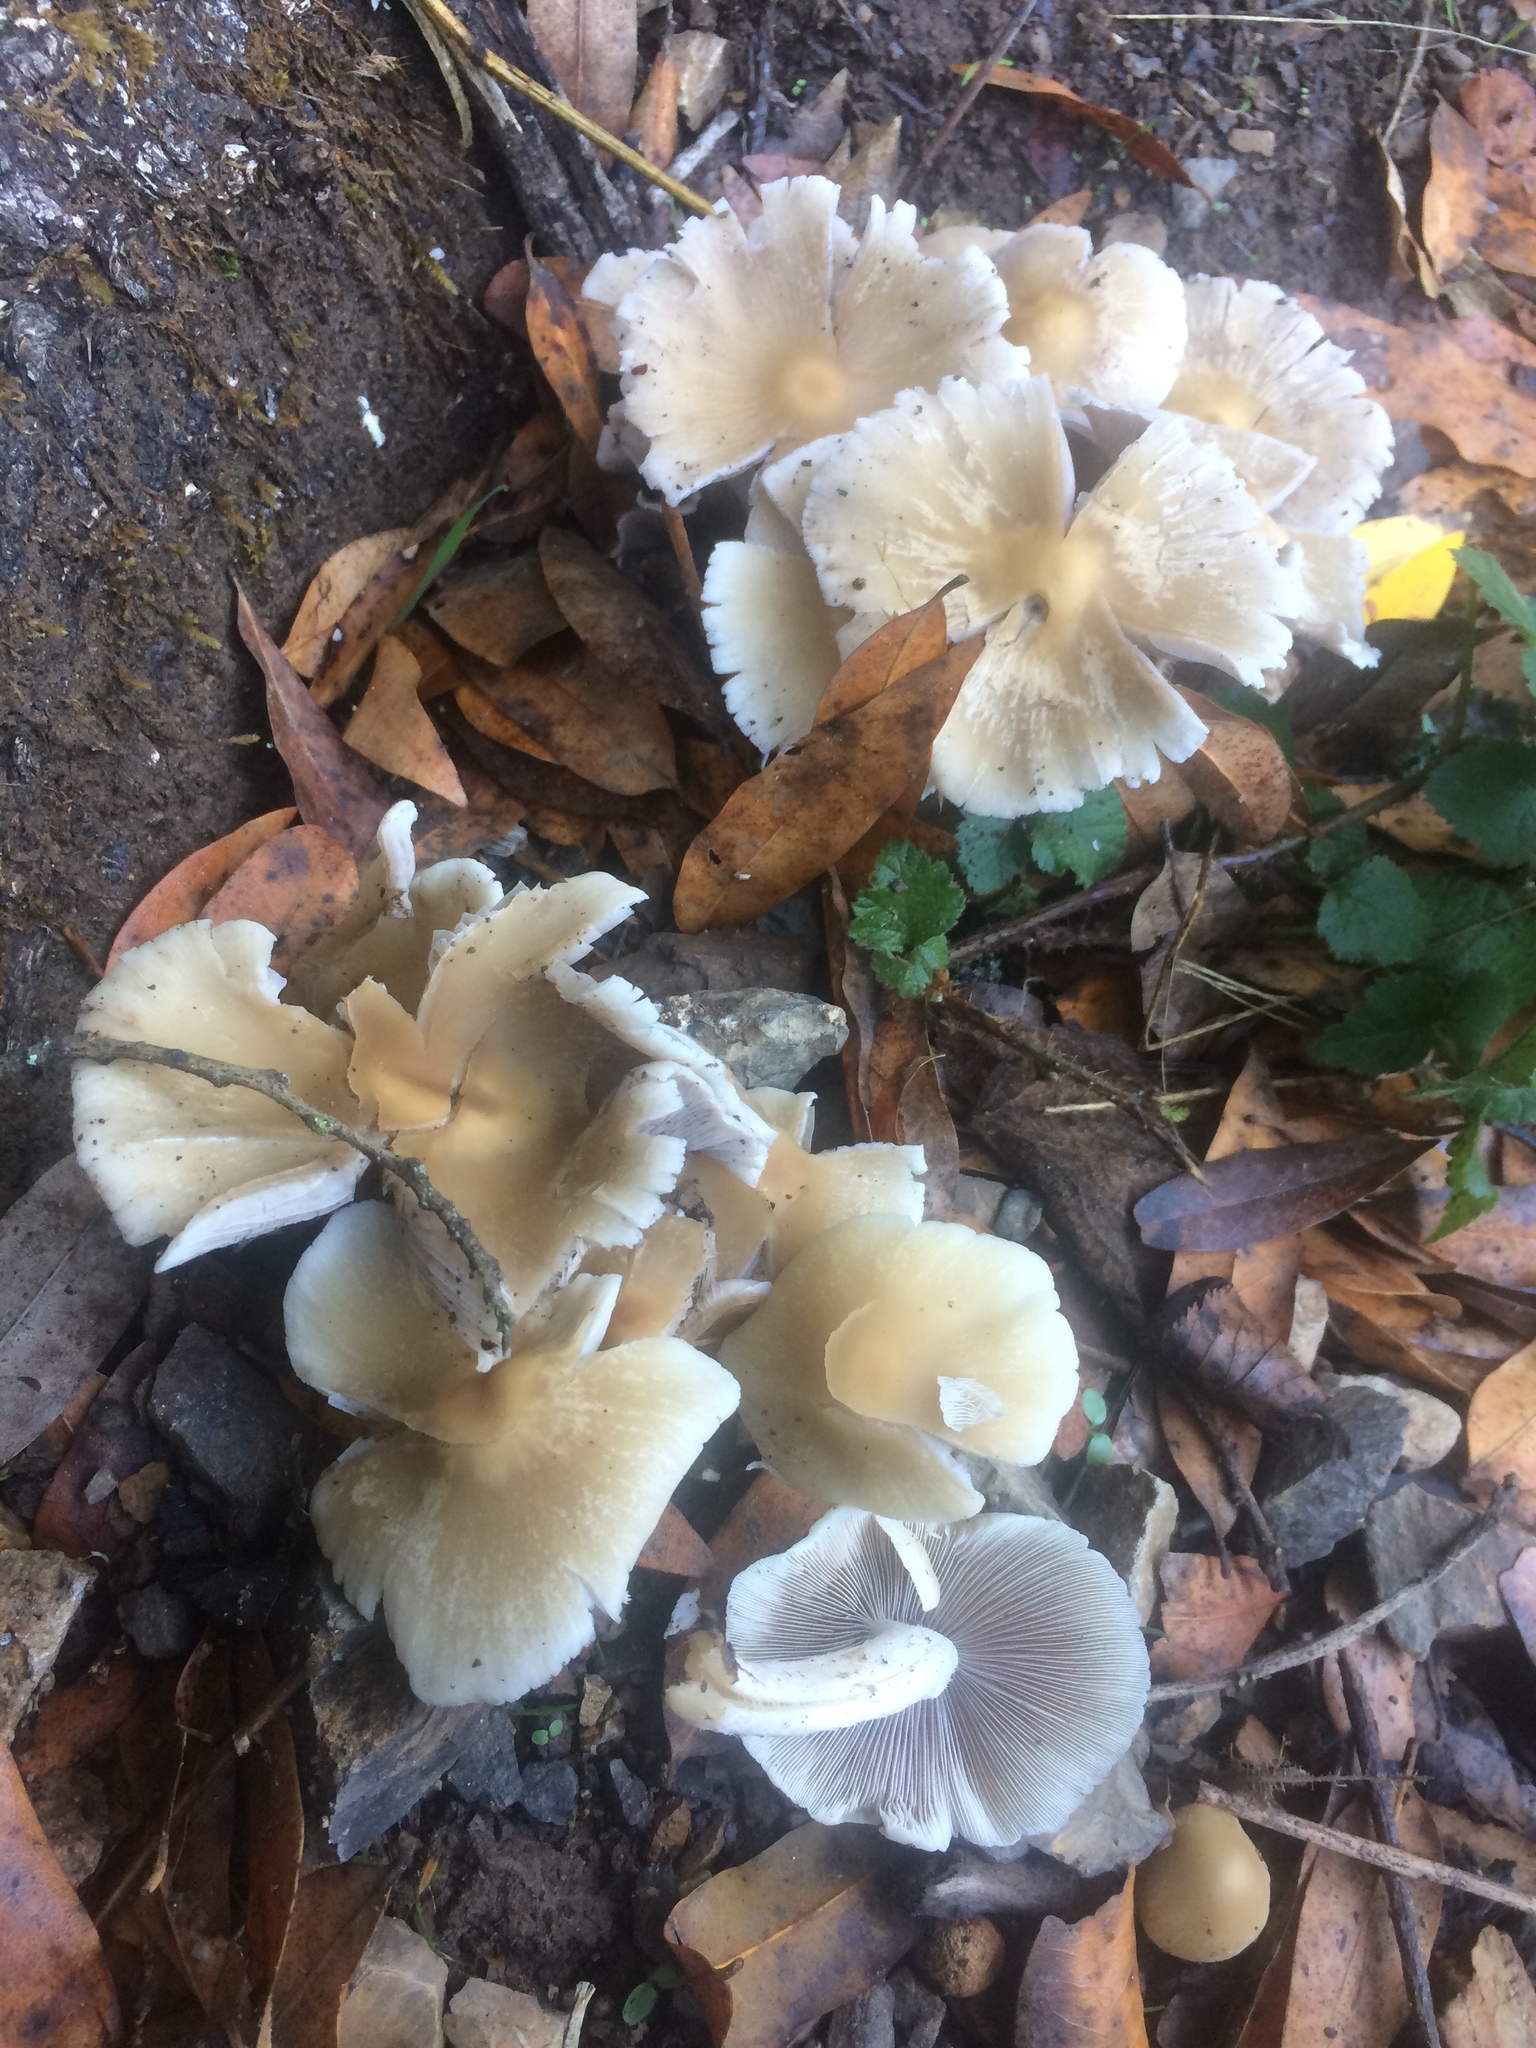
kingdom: Fungi
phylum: Basidiomycota
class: Agaricomycetes
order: Agaricales
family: Psathyrellaceae
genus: Candolleomyces
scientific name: Candolleomyces candolleanus
